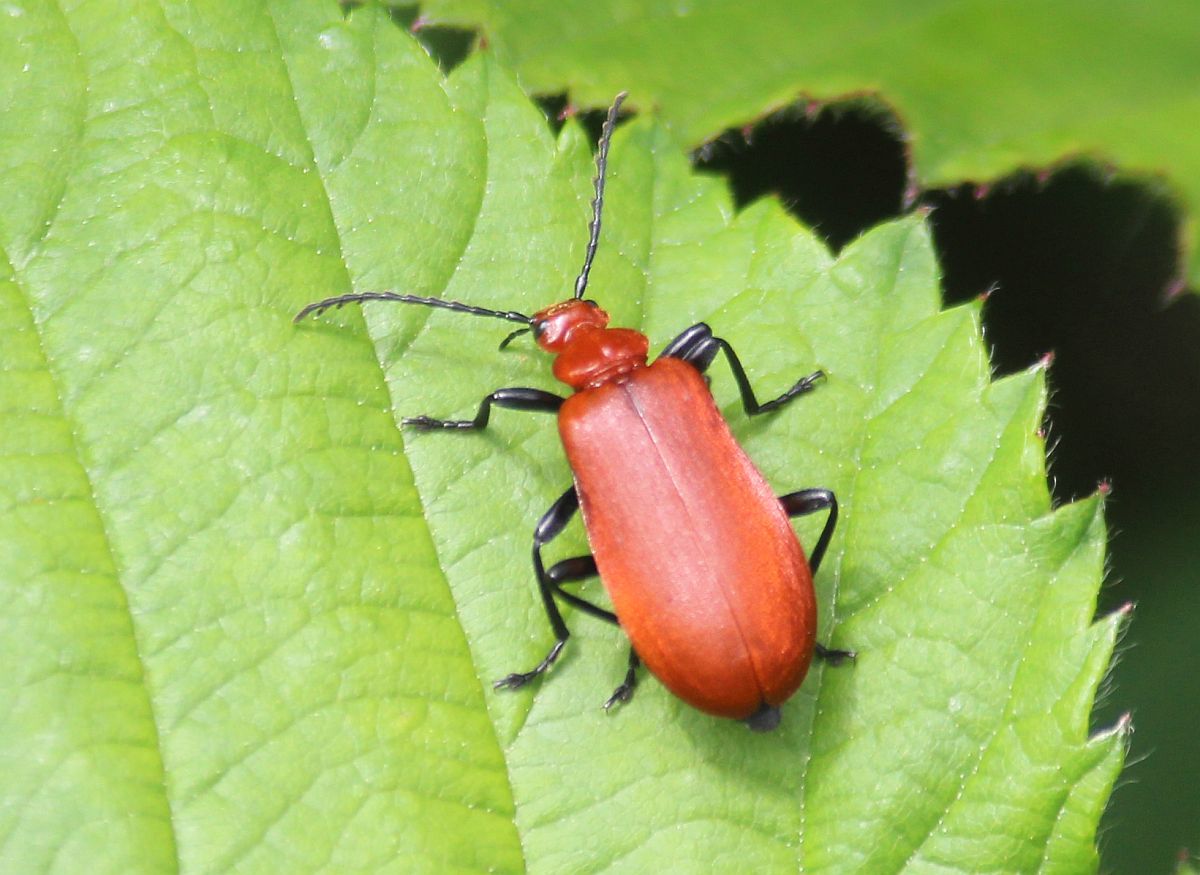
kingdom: Animalia
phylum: Arthropoda
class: Insecta
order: Coleoptera
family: Pyrochroidae
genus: Pyrochroa
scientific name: Pyrochroa serraticornis
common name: Red-headed cardinal beetle
